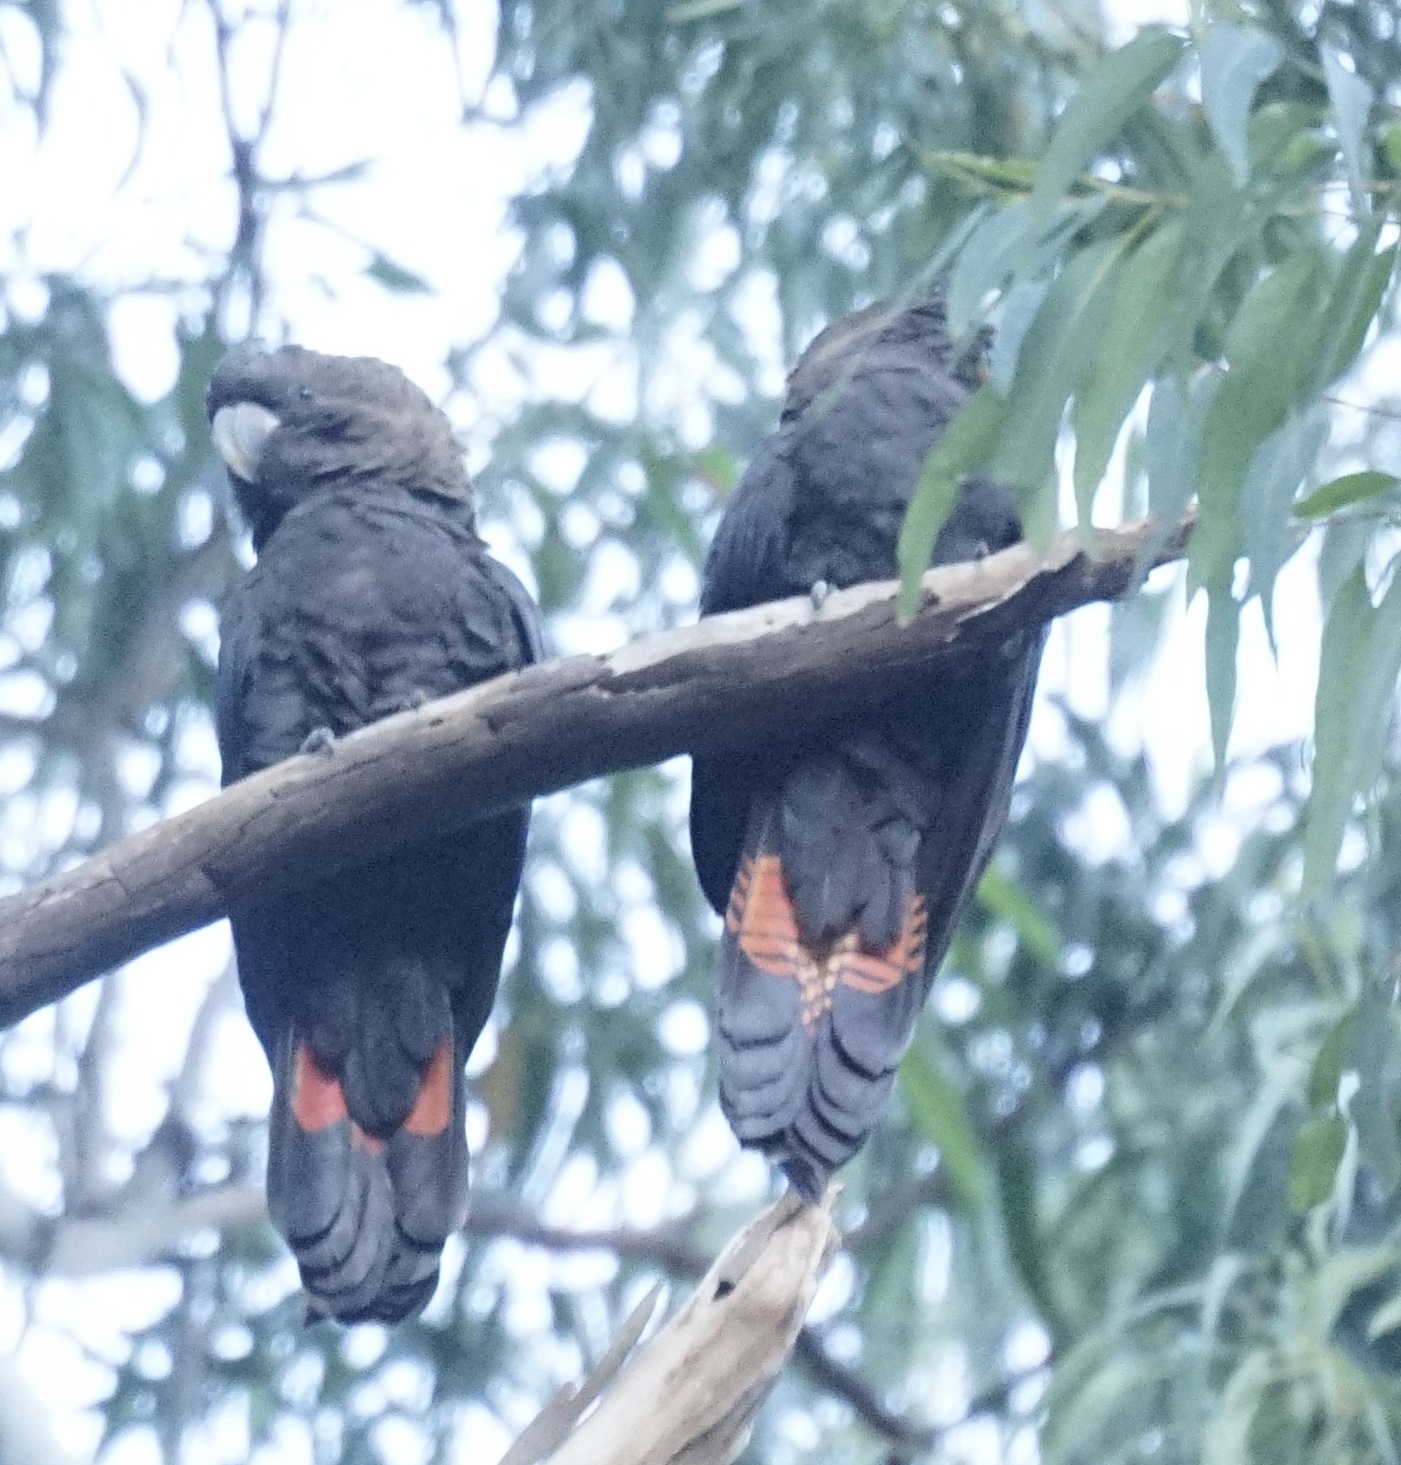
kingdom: Animalia
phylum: Chordata
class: Aves
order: Psittaciformes
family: Psittacidae
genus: Calyptorhynchus
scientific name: Calyptorhynchus lathami
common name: Glossy black cockatoo
